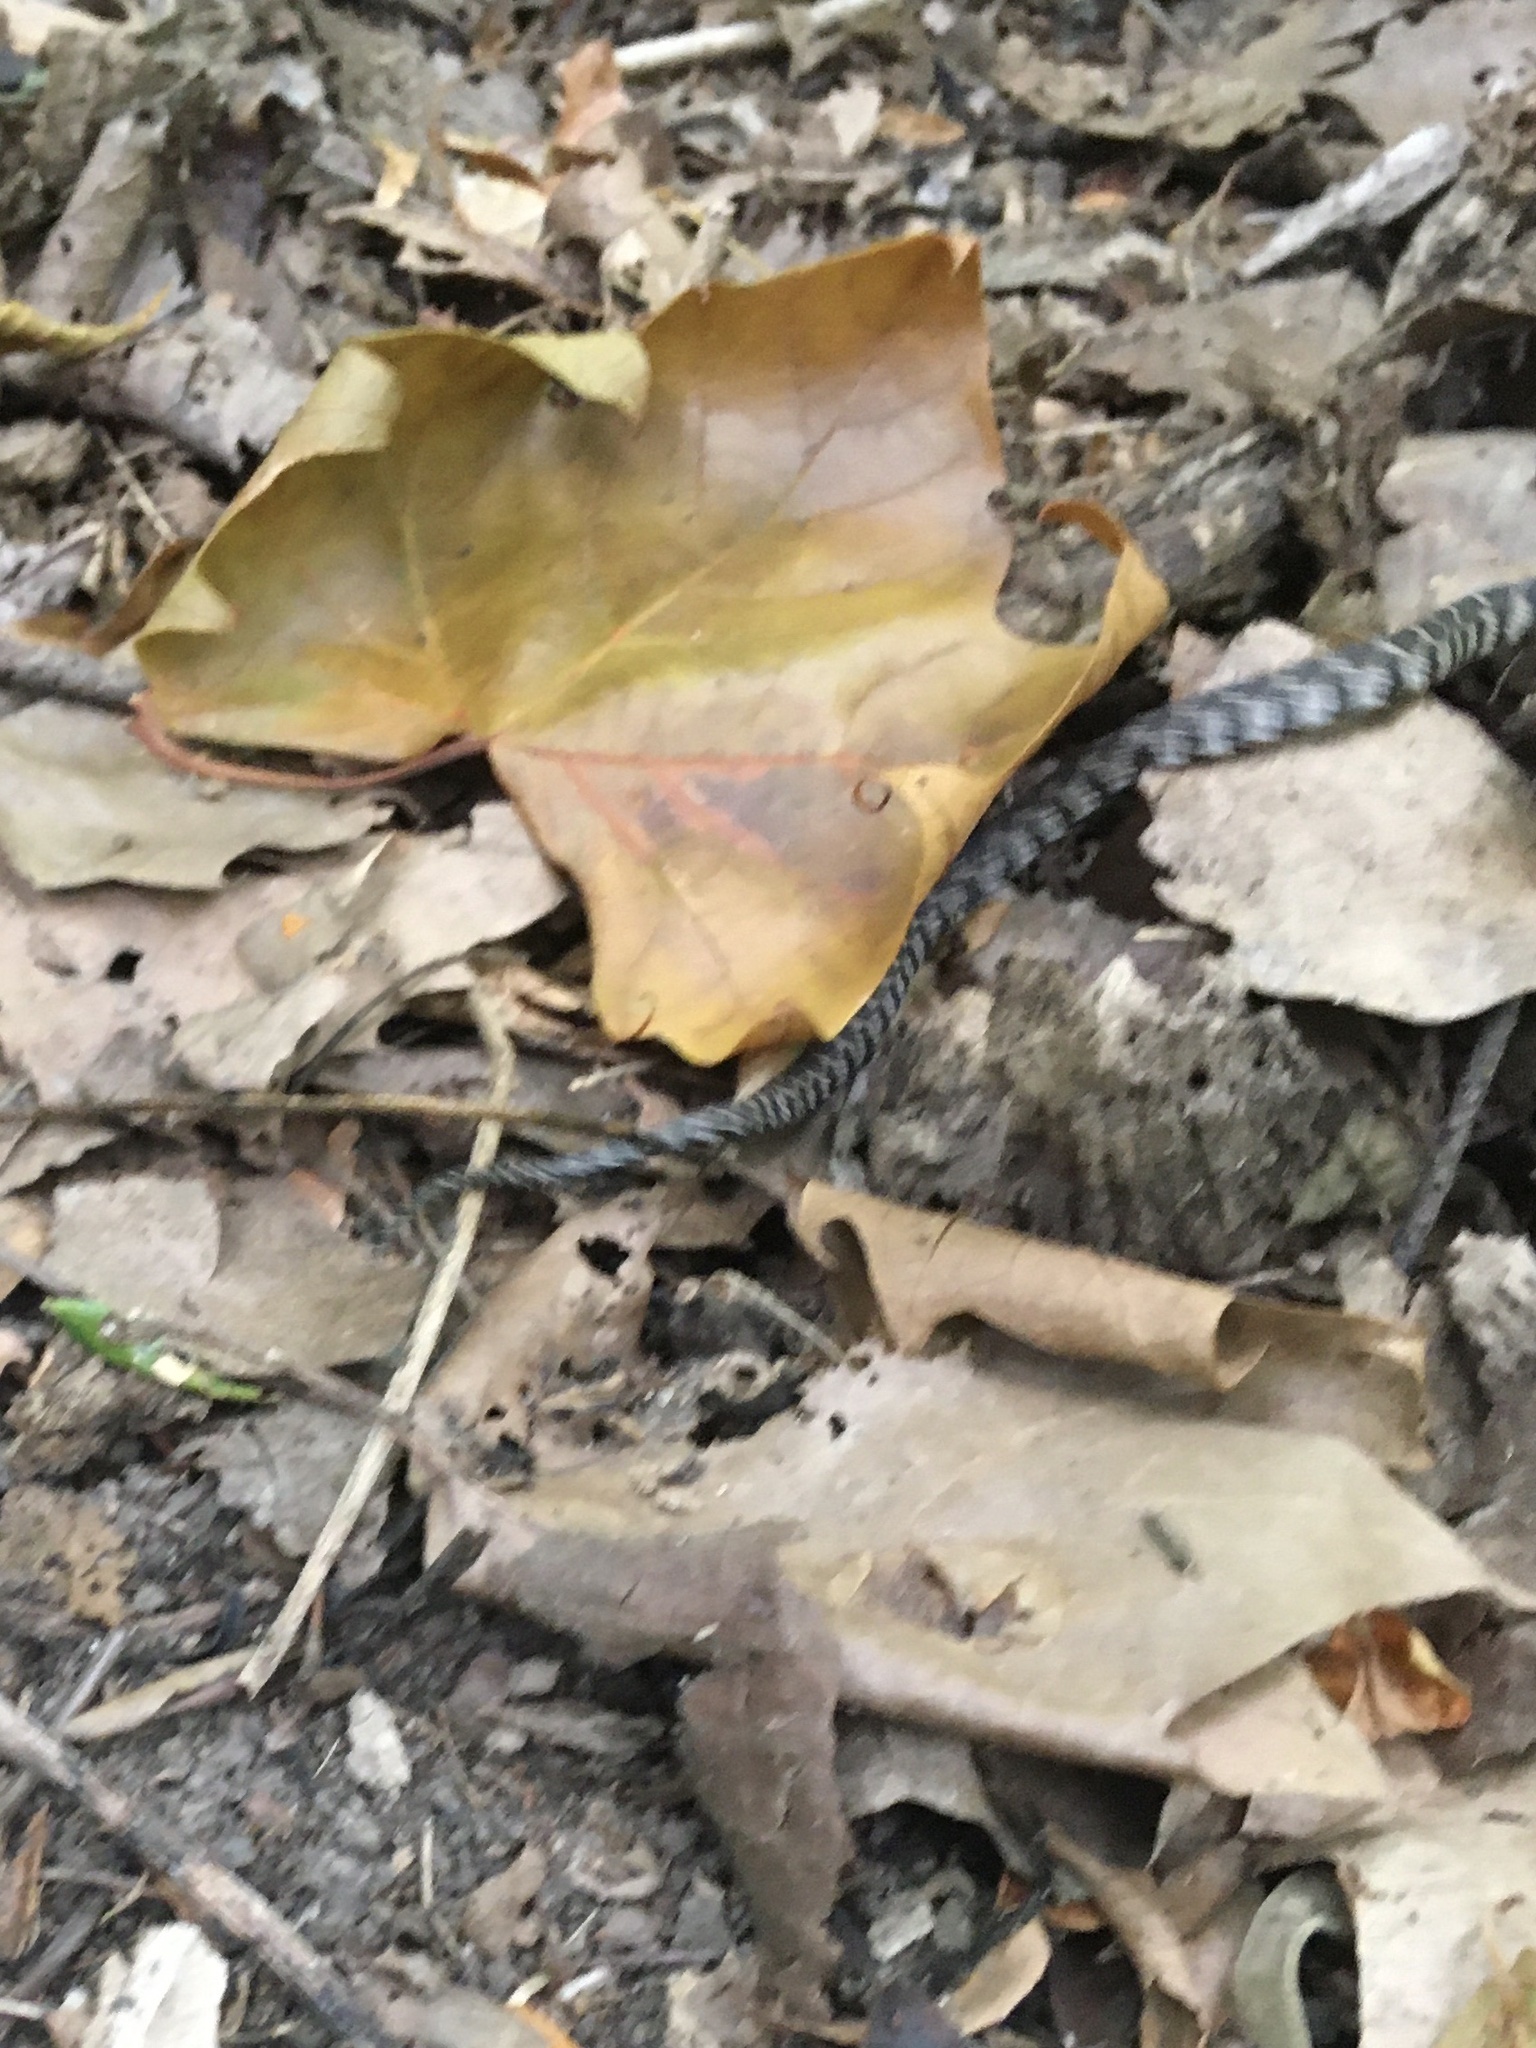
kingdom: Animalia
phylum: Chordata
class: Squamata
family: Colubridae
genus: Nerodia
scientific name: Nerodia sipedon
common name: Northern water snake
